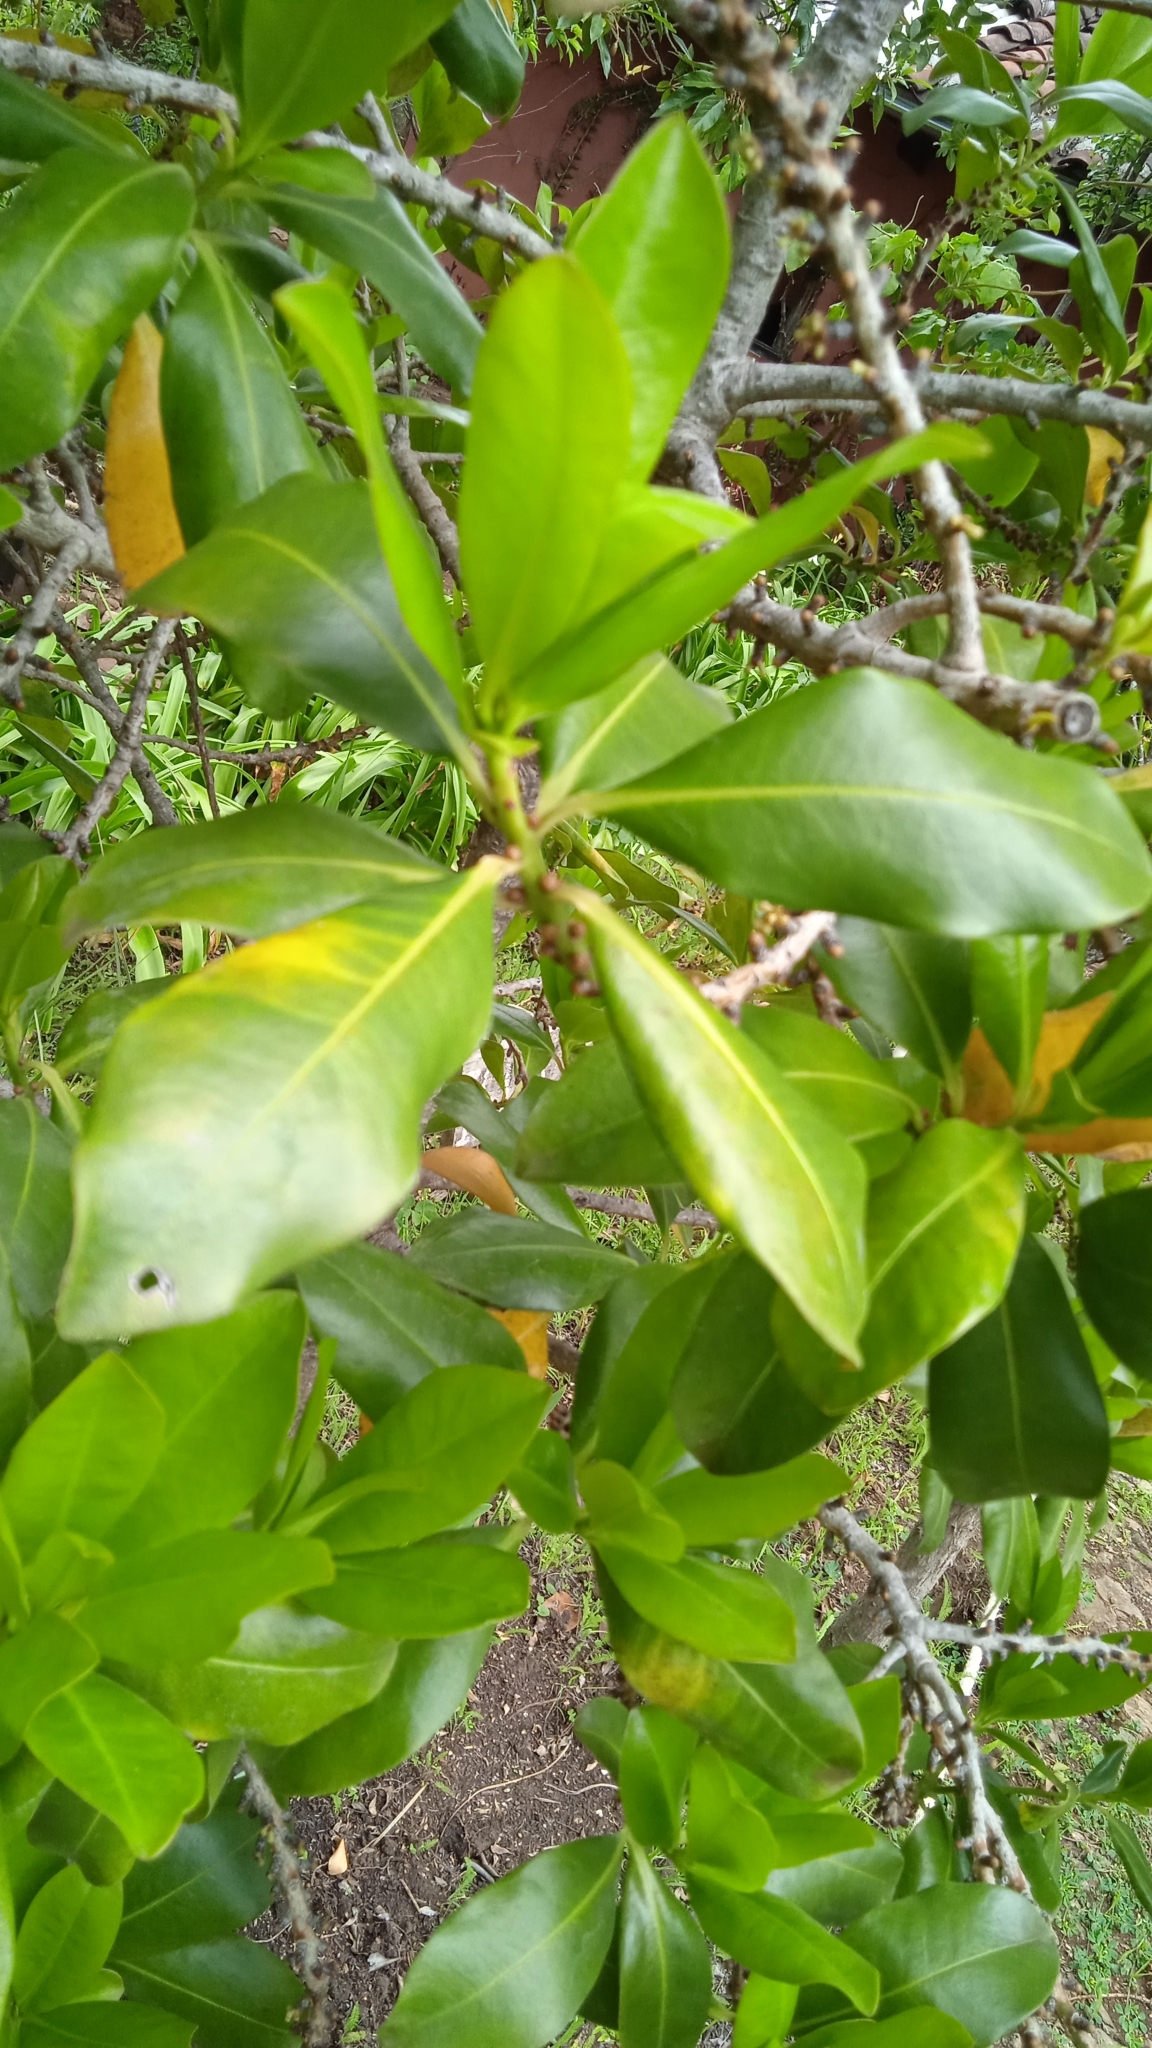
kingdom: Plantae
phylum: Tracheophyta
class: Magnoliopsida
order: Ericales
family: Primulaceae
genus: Myrsine
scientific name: Myrsine floridana
